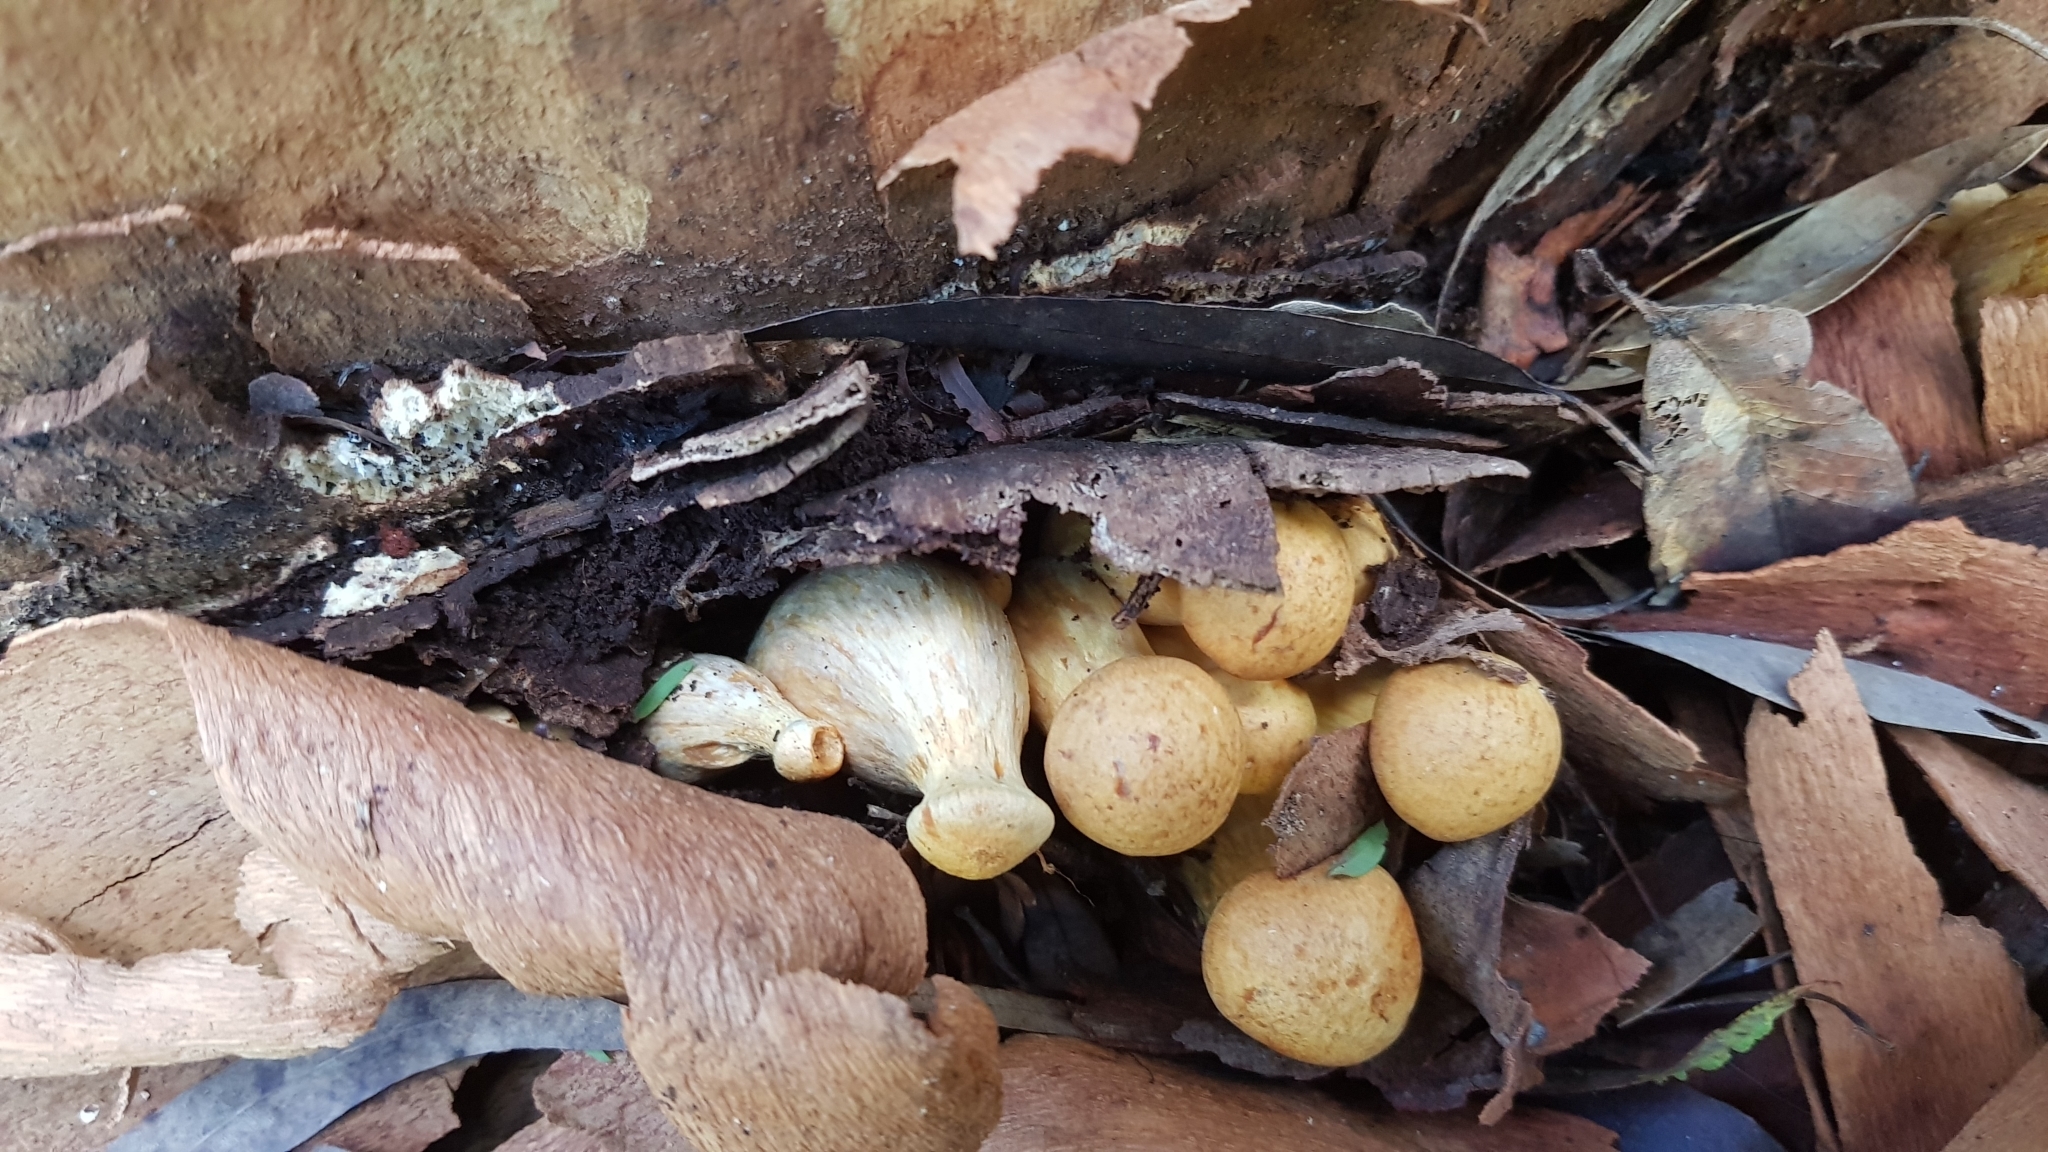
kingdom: Fungi
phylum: Basidiomycota
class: Agaricomycetes
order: Agaricales
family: Hymenogastraceae
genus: Gymnopilus
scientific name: Gymnopilus junonius
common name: Spectacular rustgill
